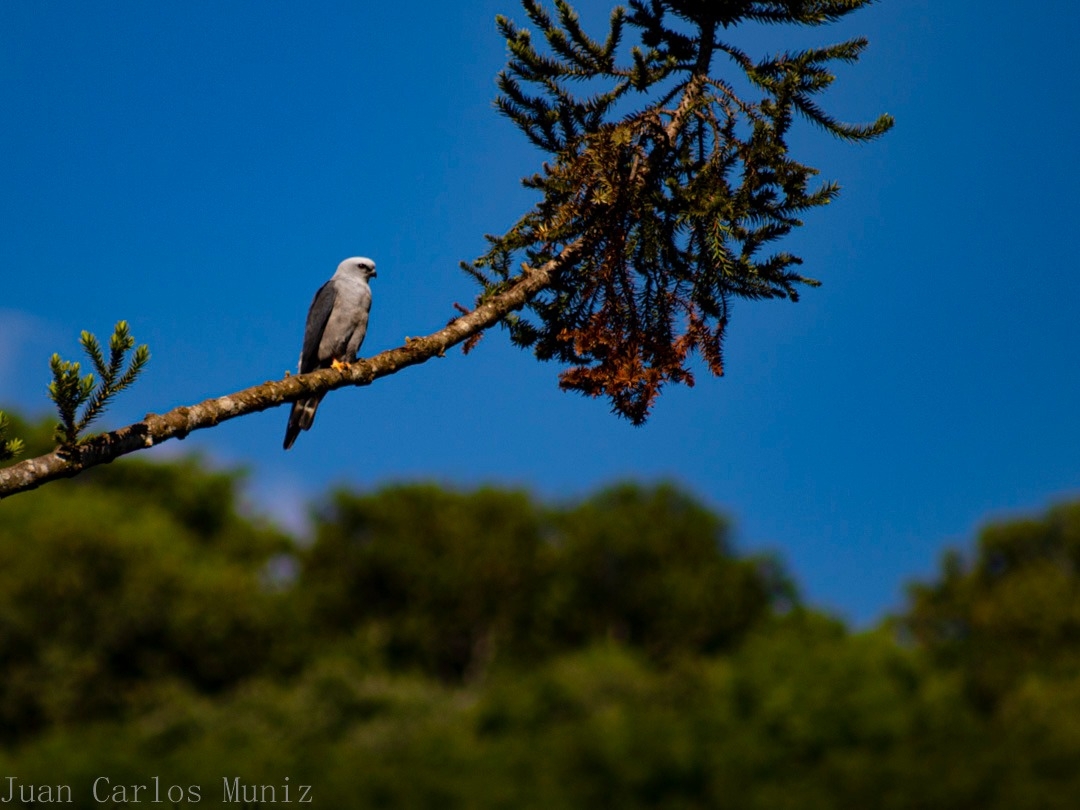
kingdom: Animalia
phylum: Chordata
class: Aves
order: Accipitriformes
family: Accipitridae
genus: Ictinia
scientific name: Ictinia plumbea
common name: Plumbeous kite
